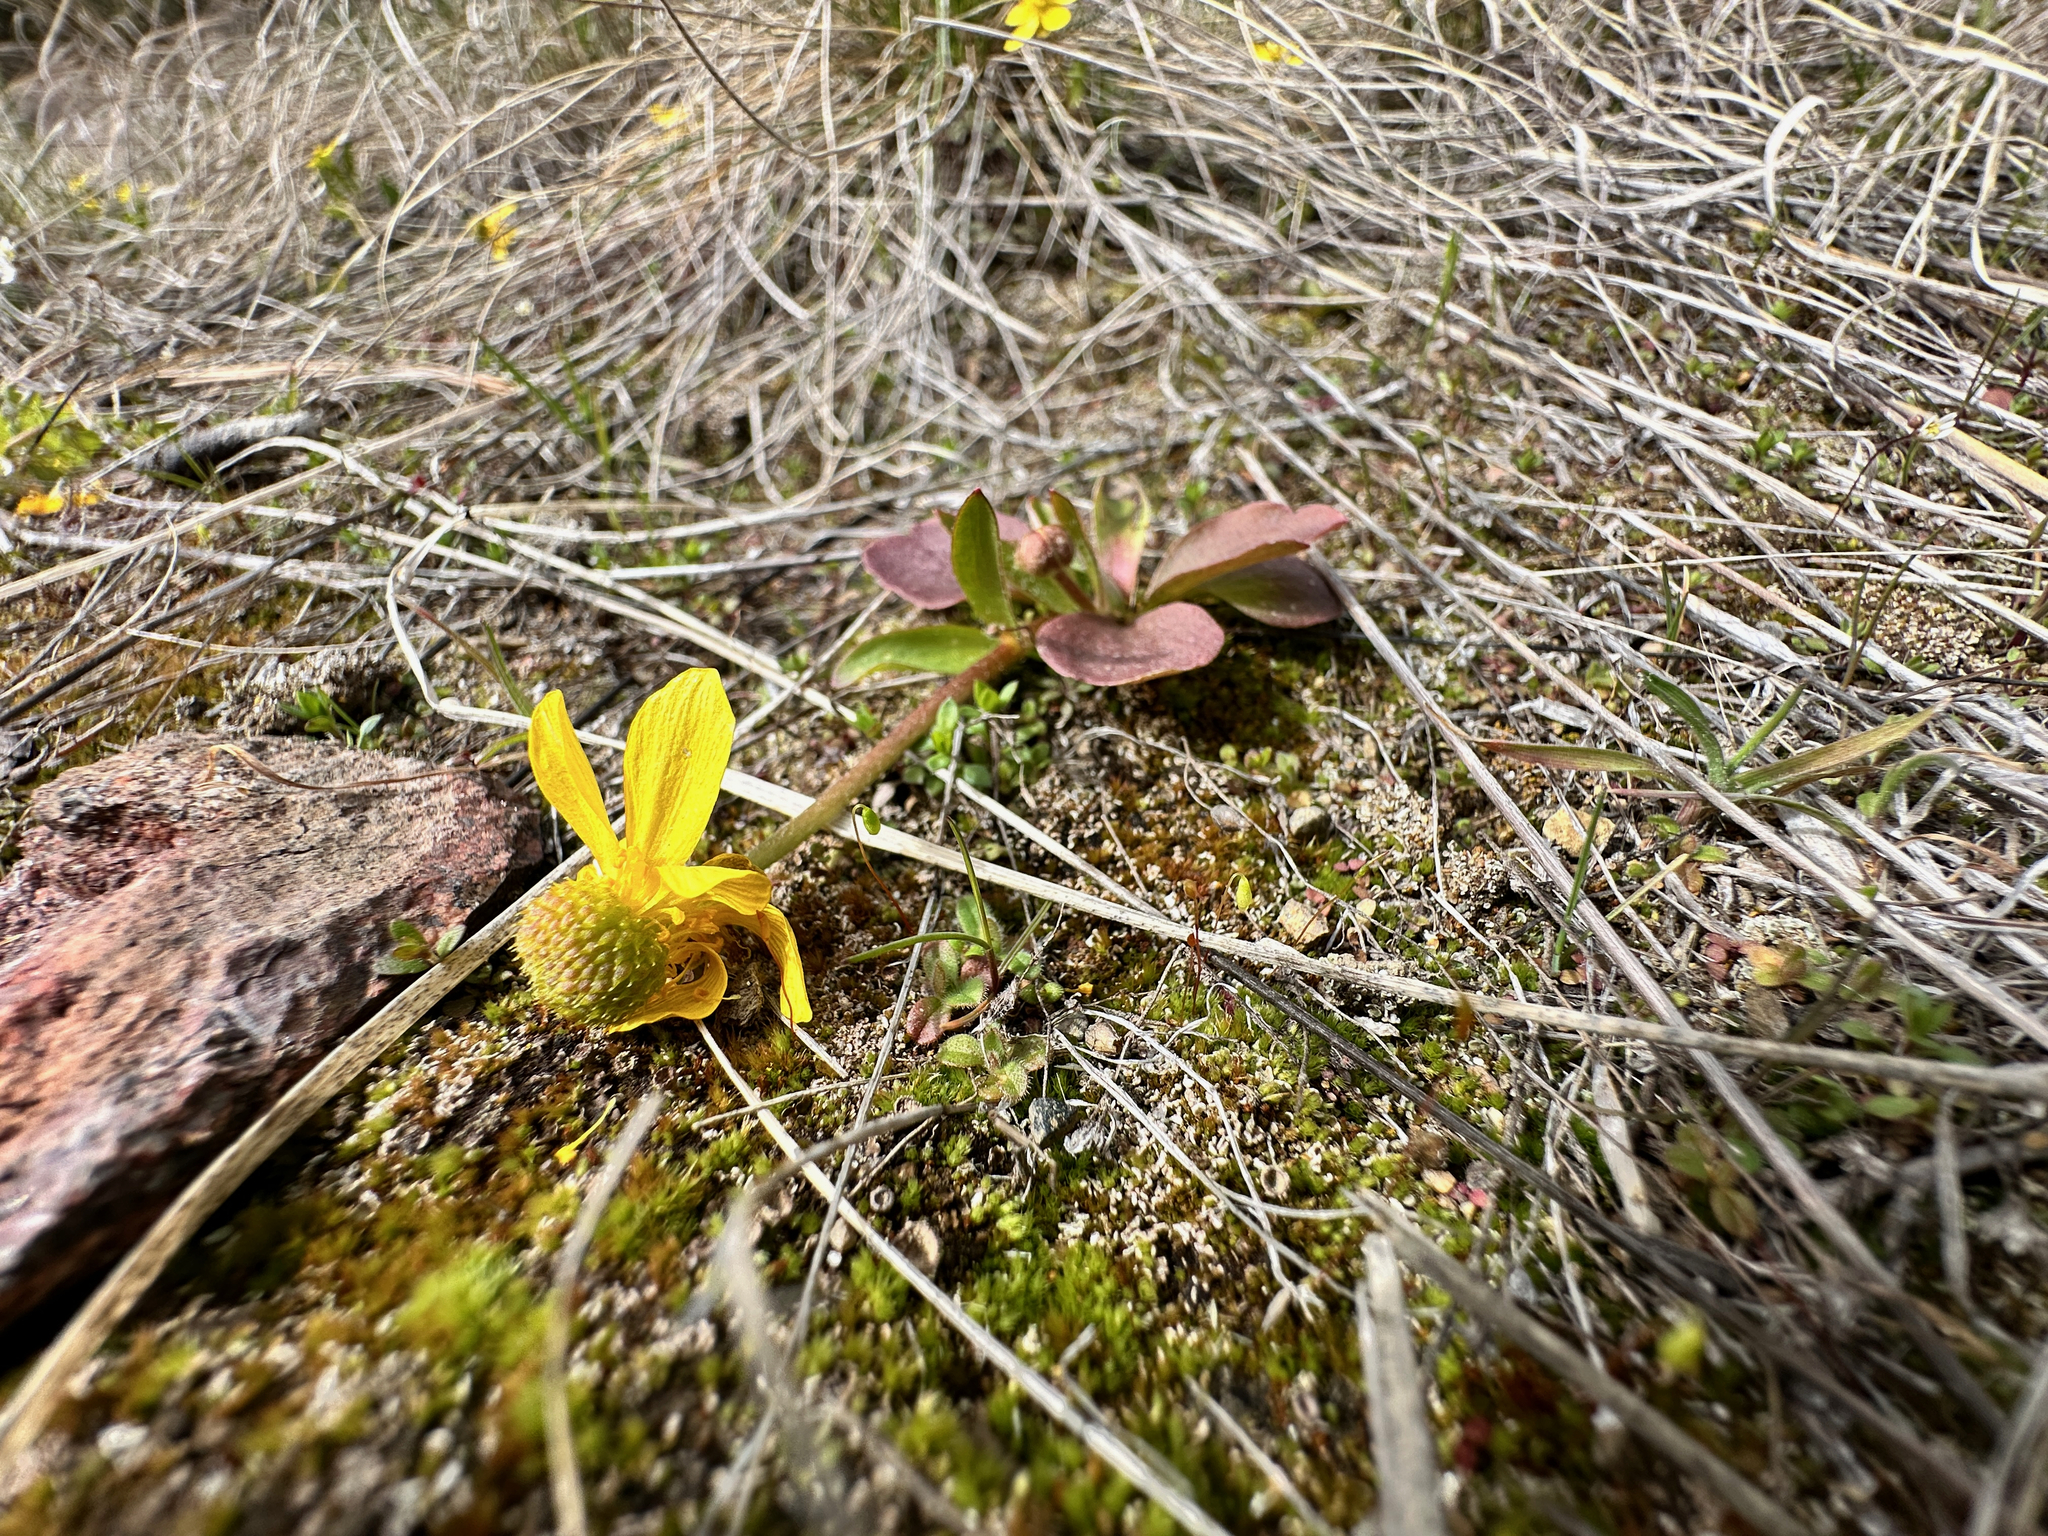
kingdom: Plantae
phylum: Tracheophyta
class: Magnoliopsida
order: Ranunculales
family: Ranunculaceae
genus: Ranunculus
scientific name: Ranunculus glaberrimus
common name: Sagebrush buttercup
